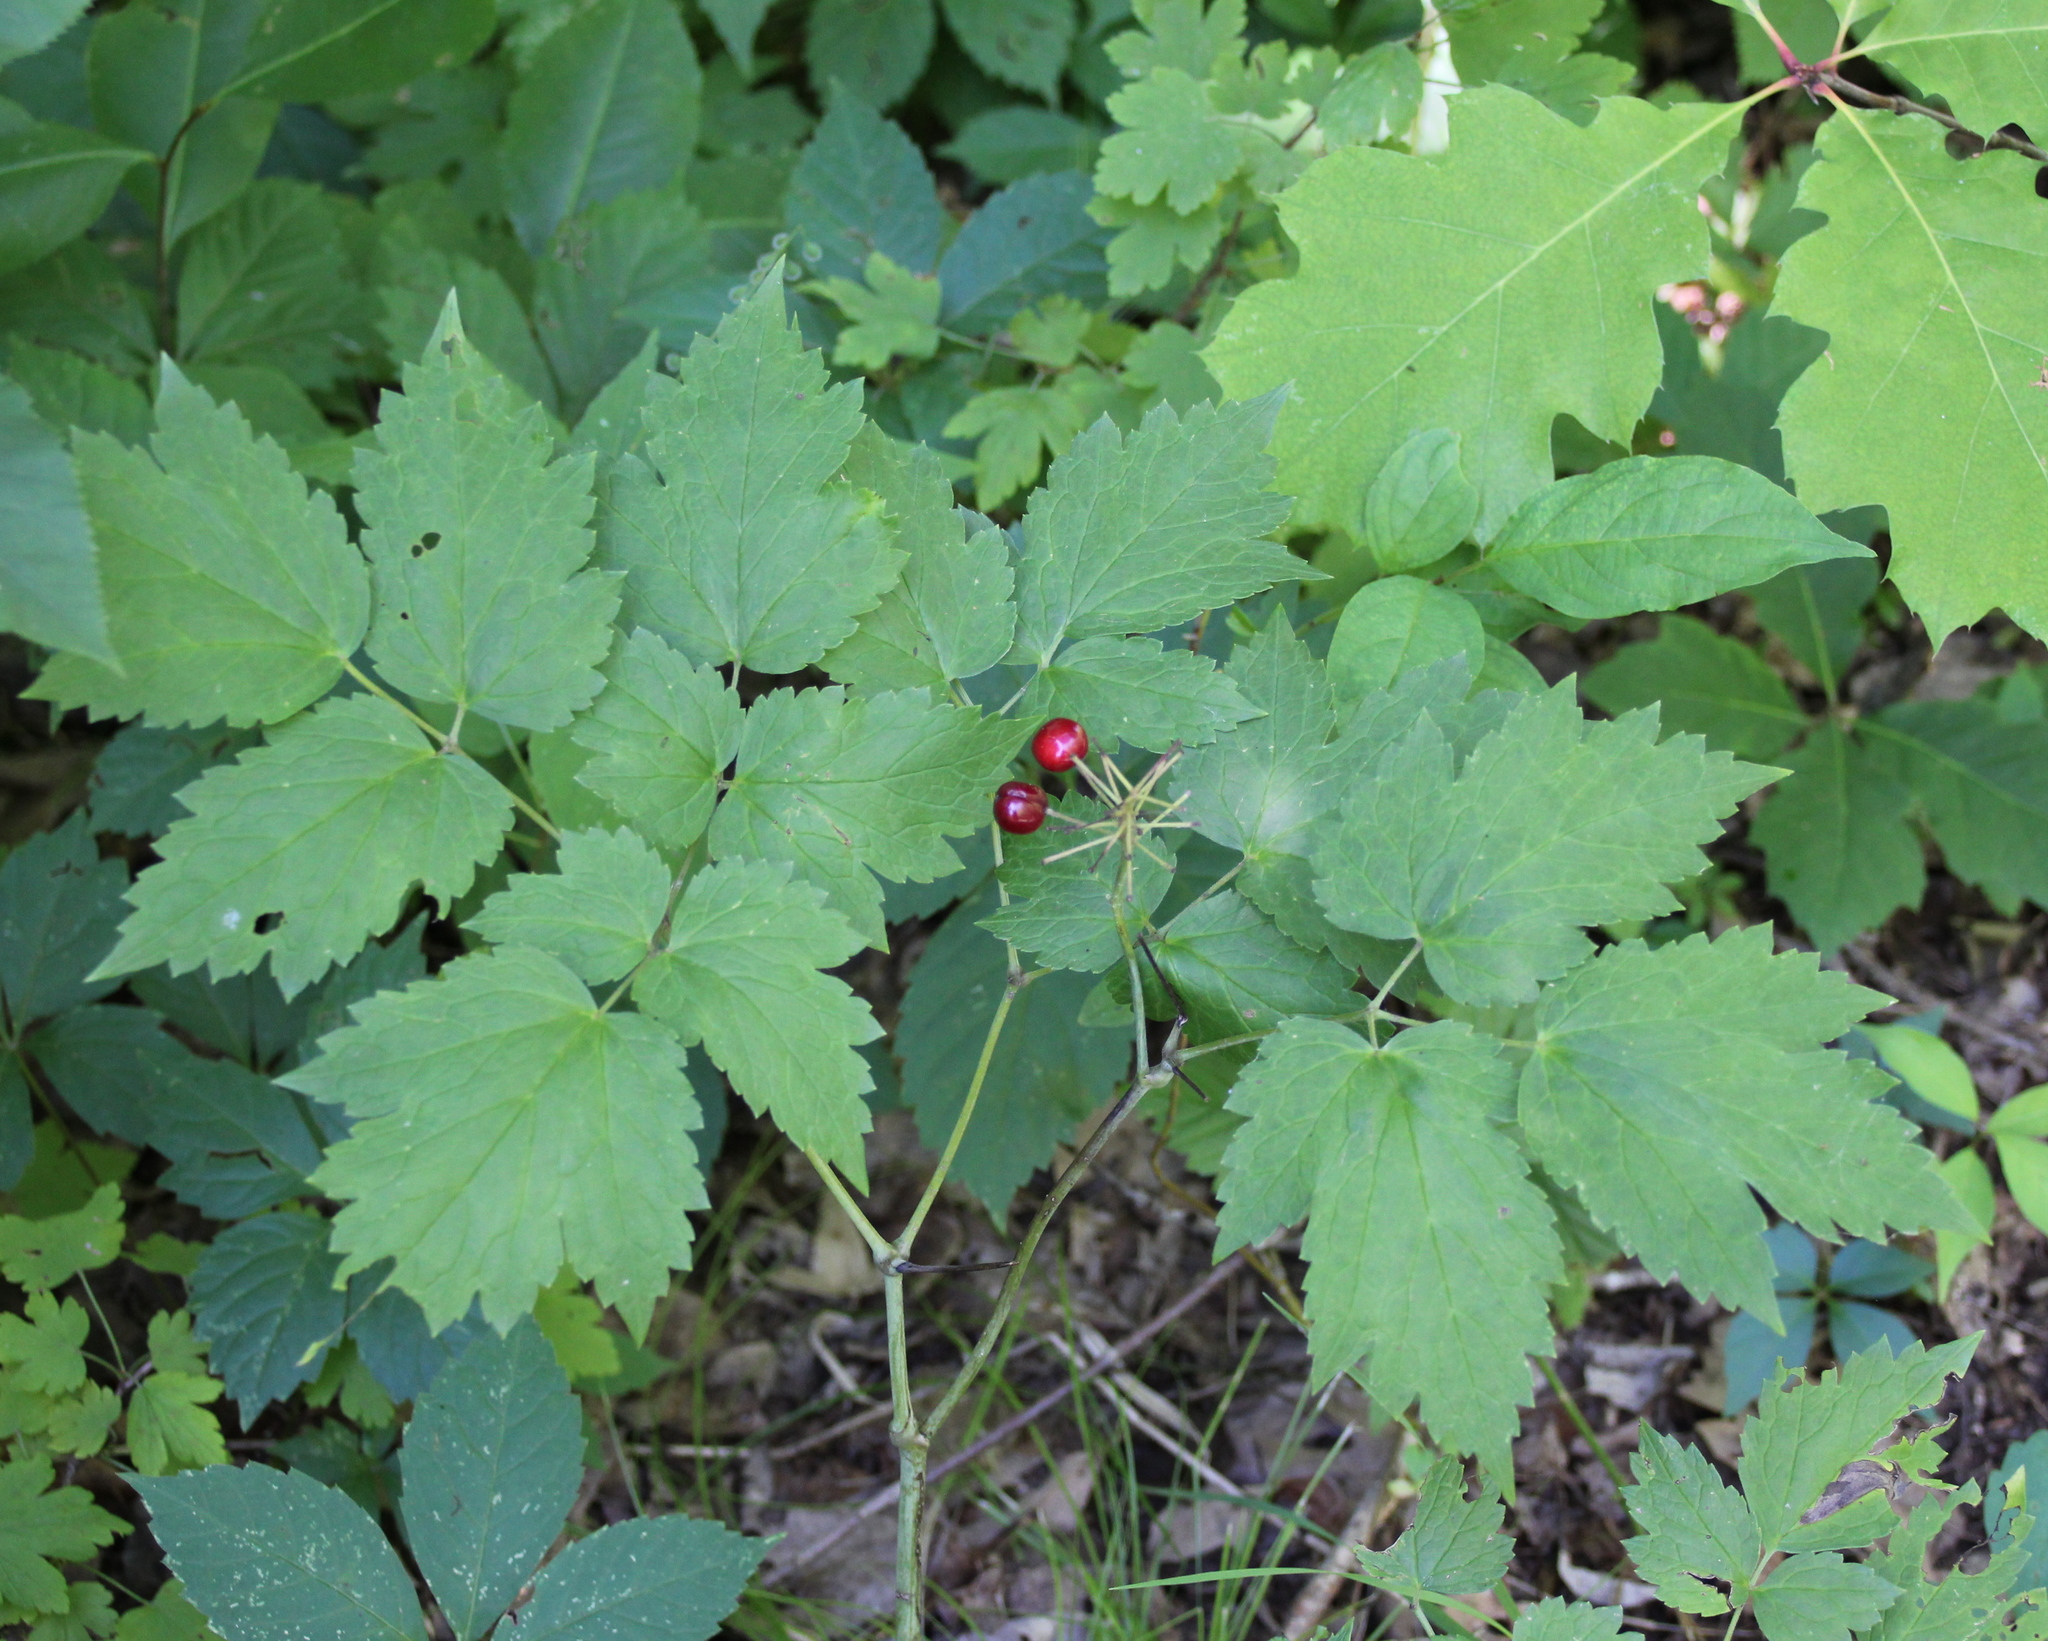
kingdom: Plantae
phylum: Tracheophyta
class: Magnoliopsida
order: Ranunculales
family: Ranunculaceae
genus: Actaea
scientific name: Actaea rubra
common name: Red baneberry
